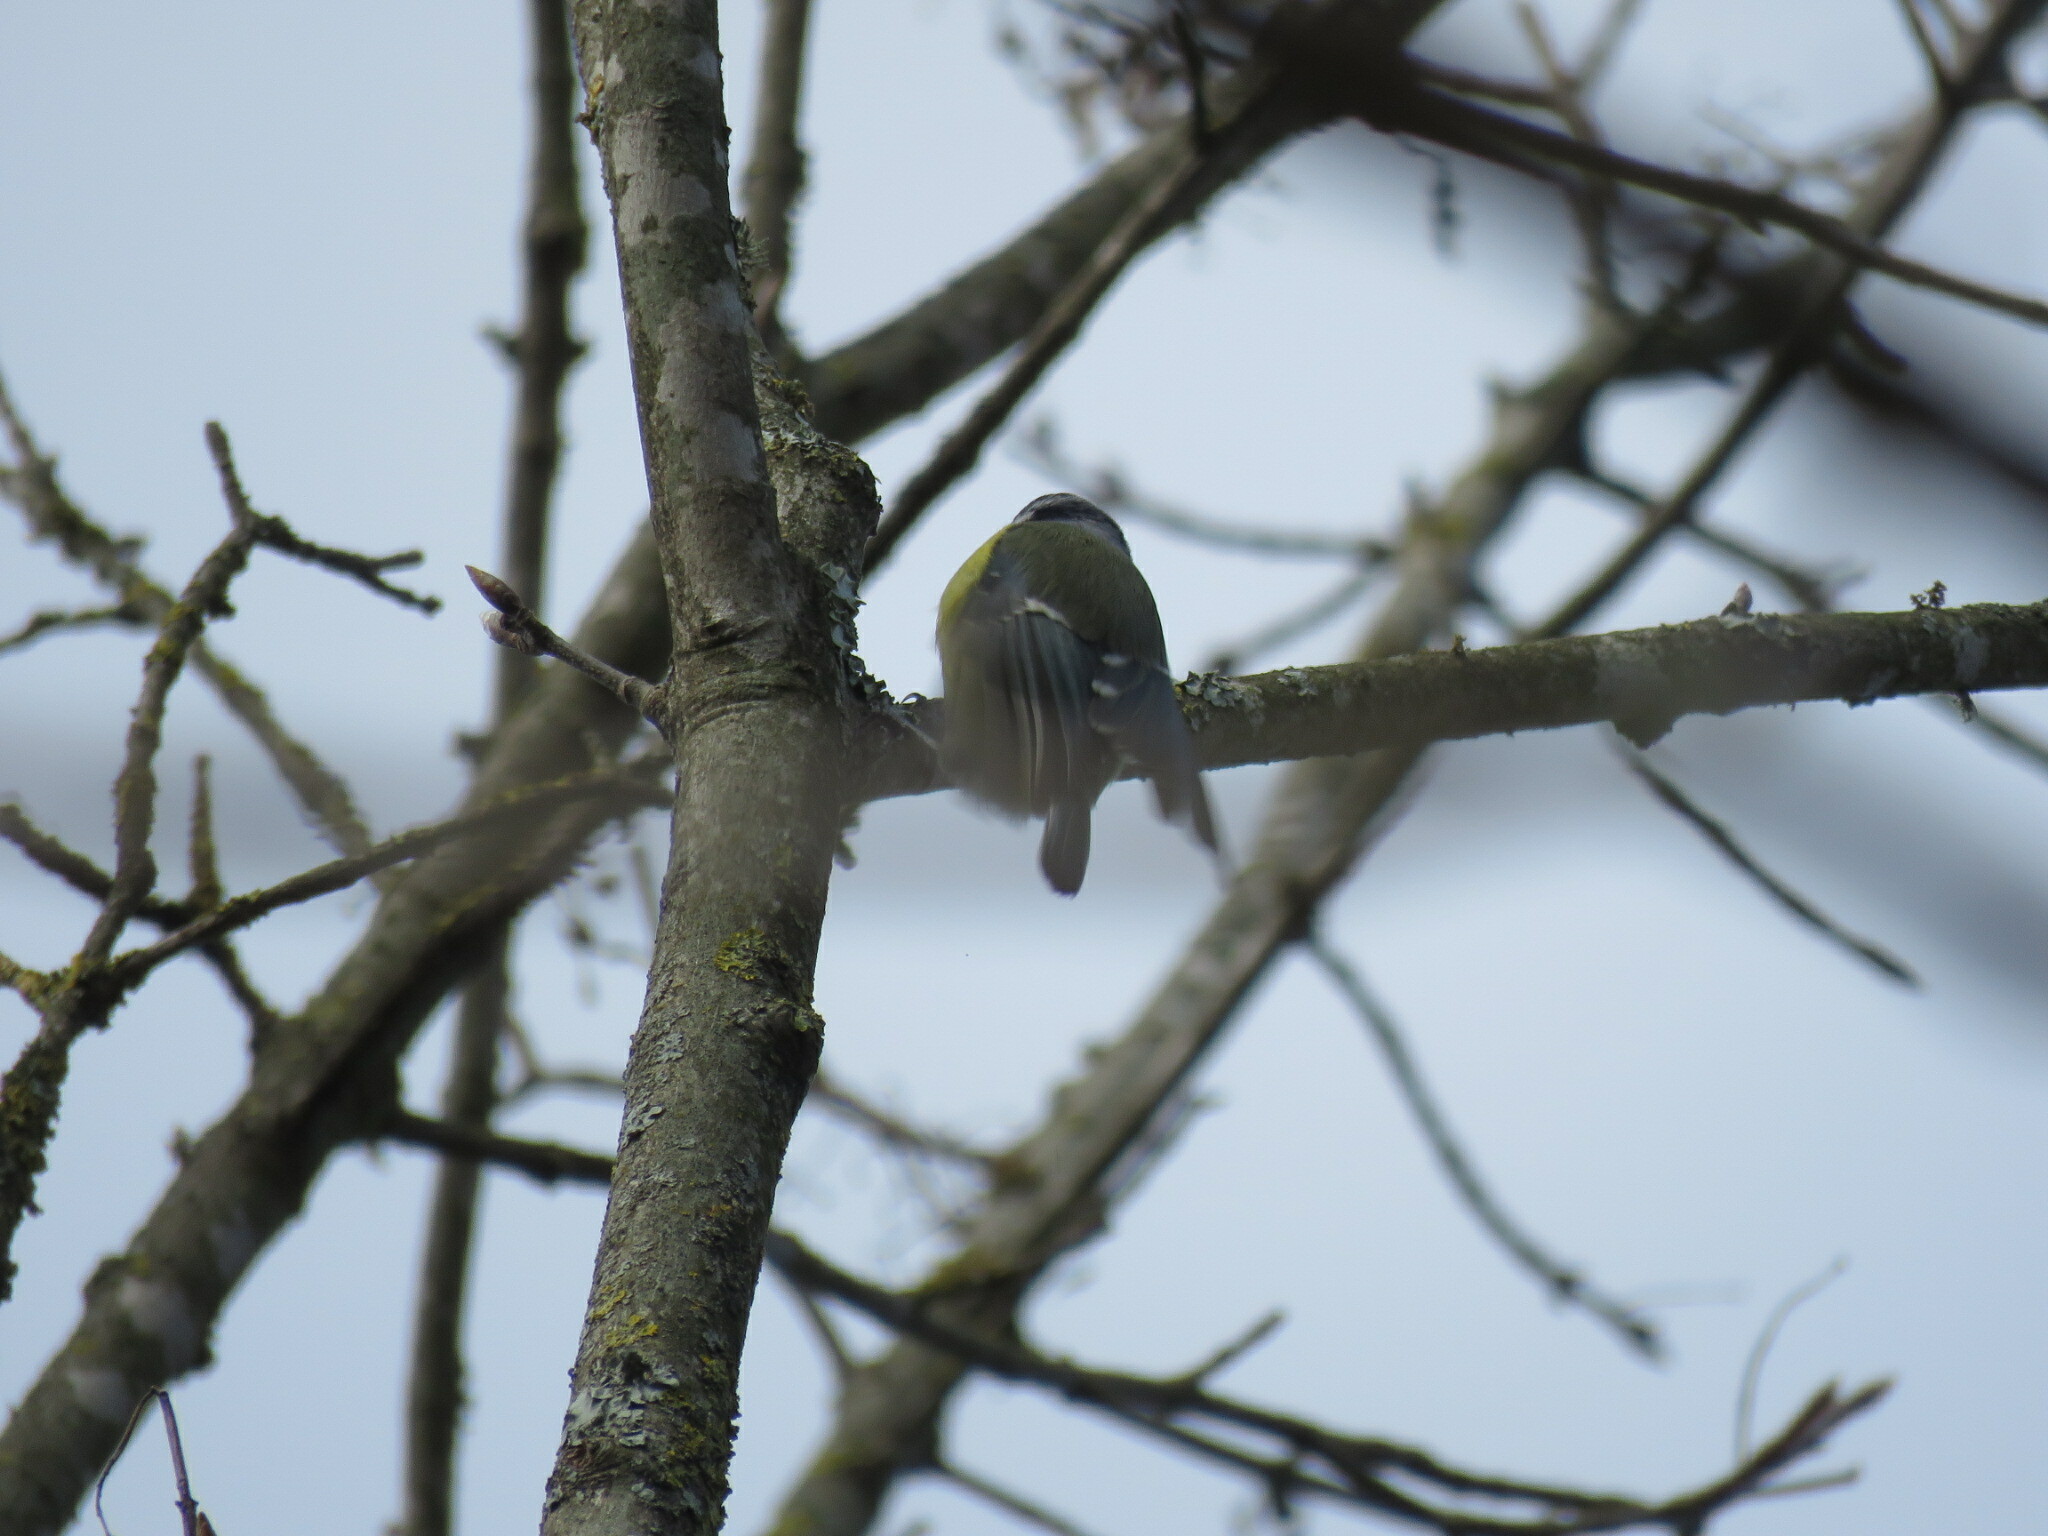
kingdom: Animalia
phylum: Chordata
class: Aves
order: Passeriformes
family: Paridae
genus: Cyanistes
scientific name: Cyanistes caeruleus
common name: Eurasian blue tit
